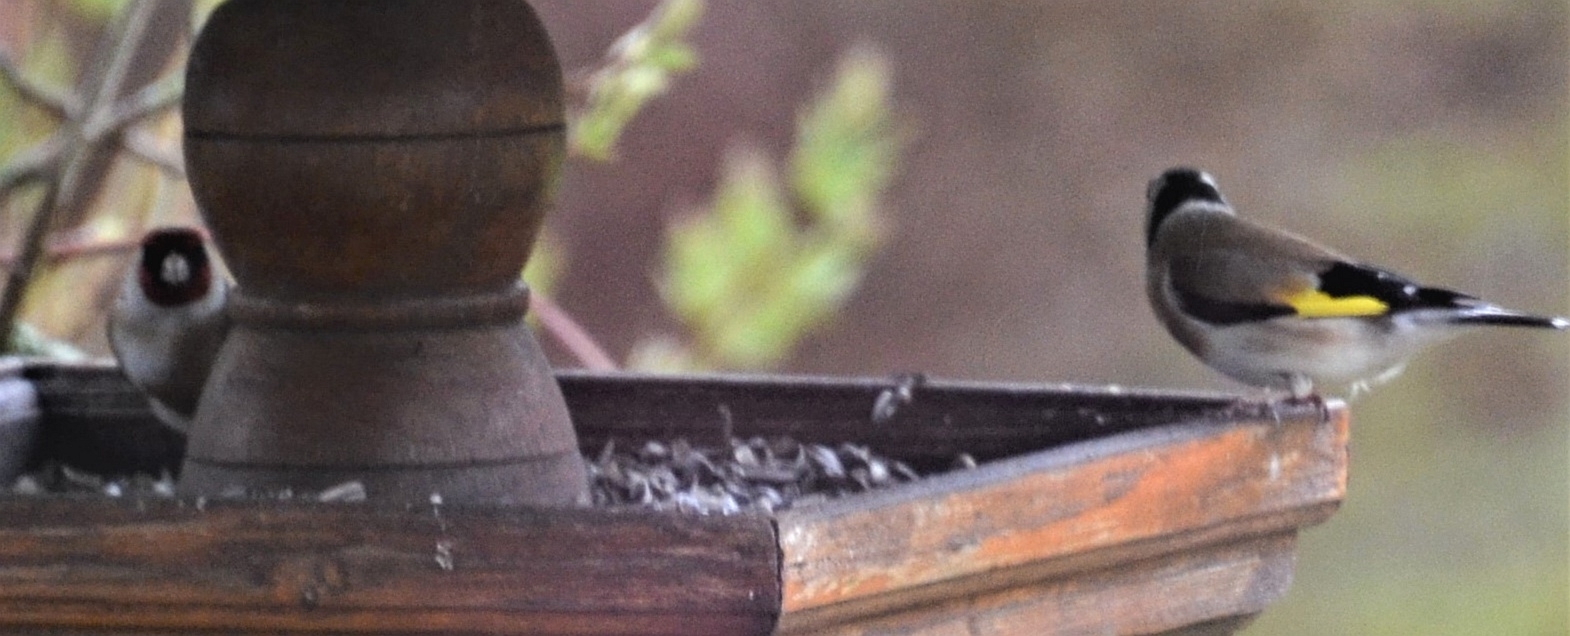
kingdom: Animalia
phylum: Chordata
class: Aves
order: Passeriformes
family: Fringillidae
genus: Carduelis
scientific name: Carduelis carduelis
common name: European goldfinch
